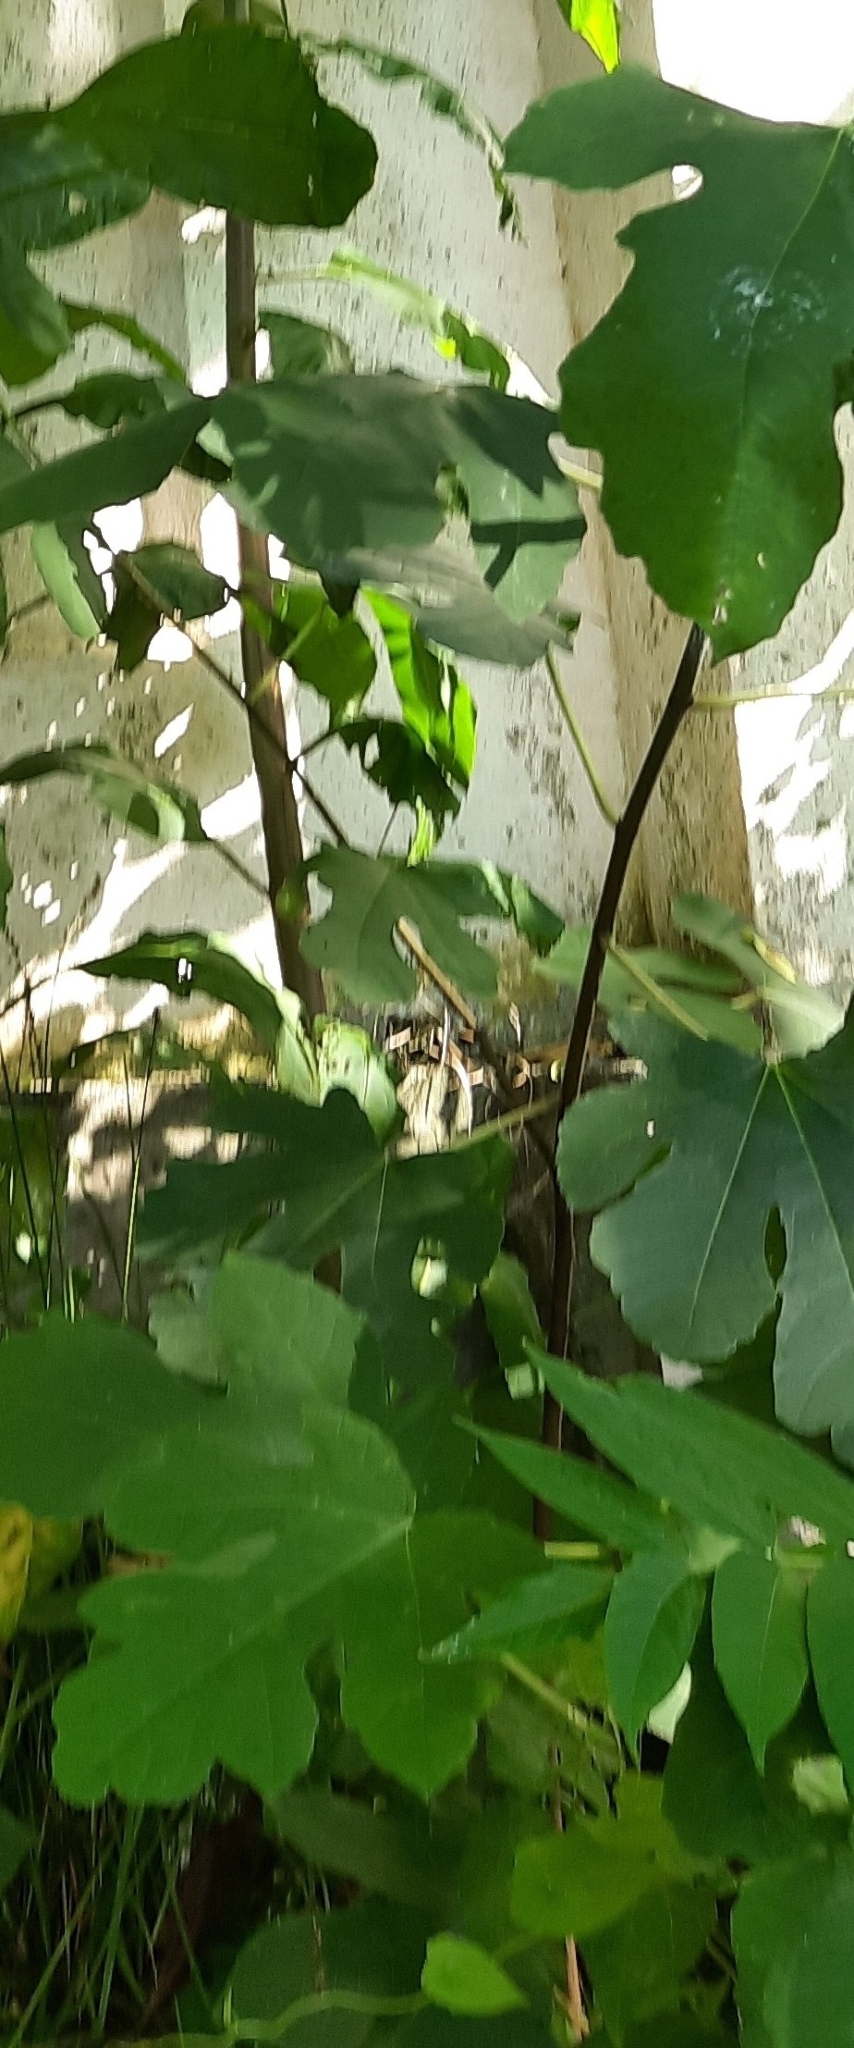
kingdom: Plantae
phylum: Tracheophyta
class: Magnoliopsida
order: Rosales
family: Moraceae
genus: Ficus
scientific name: Ficus carica
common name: Fig
